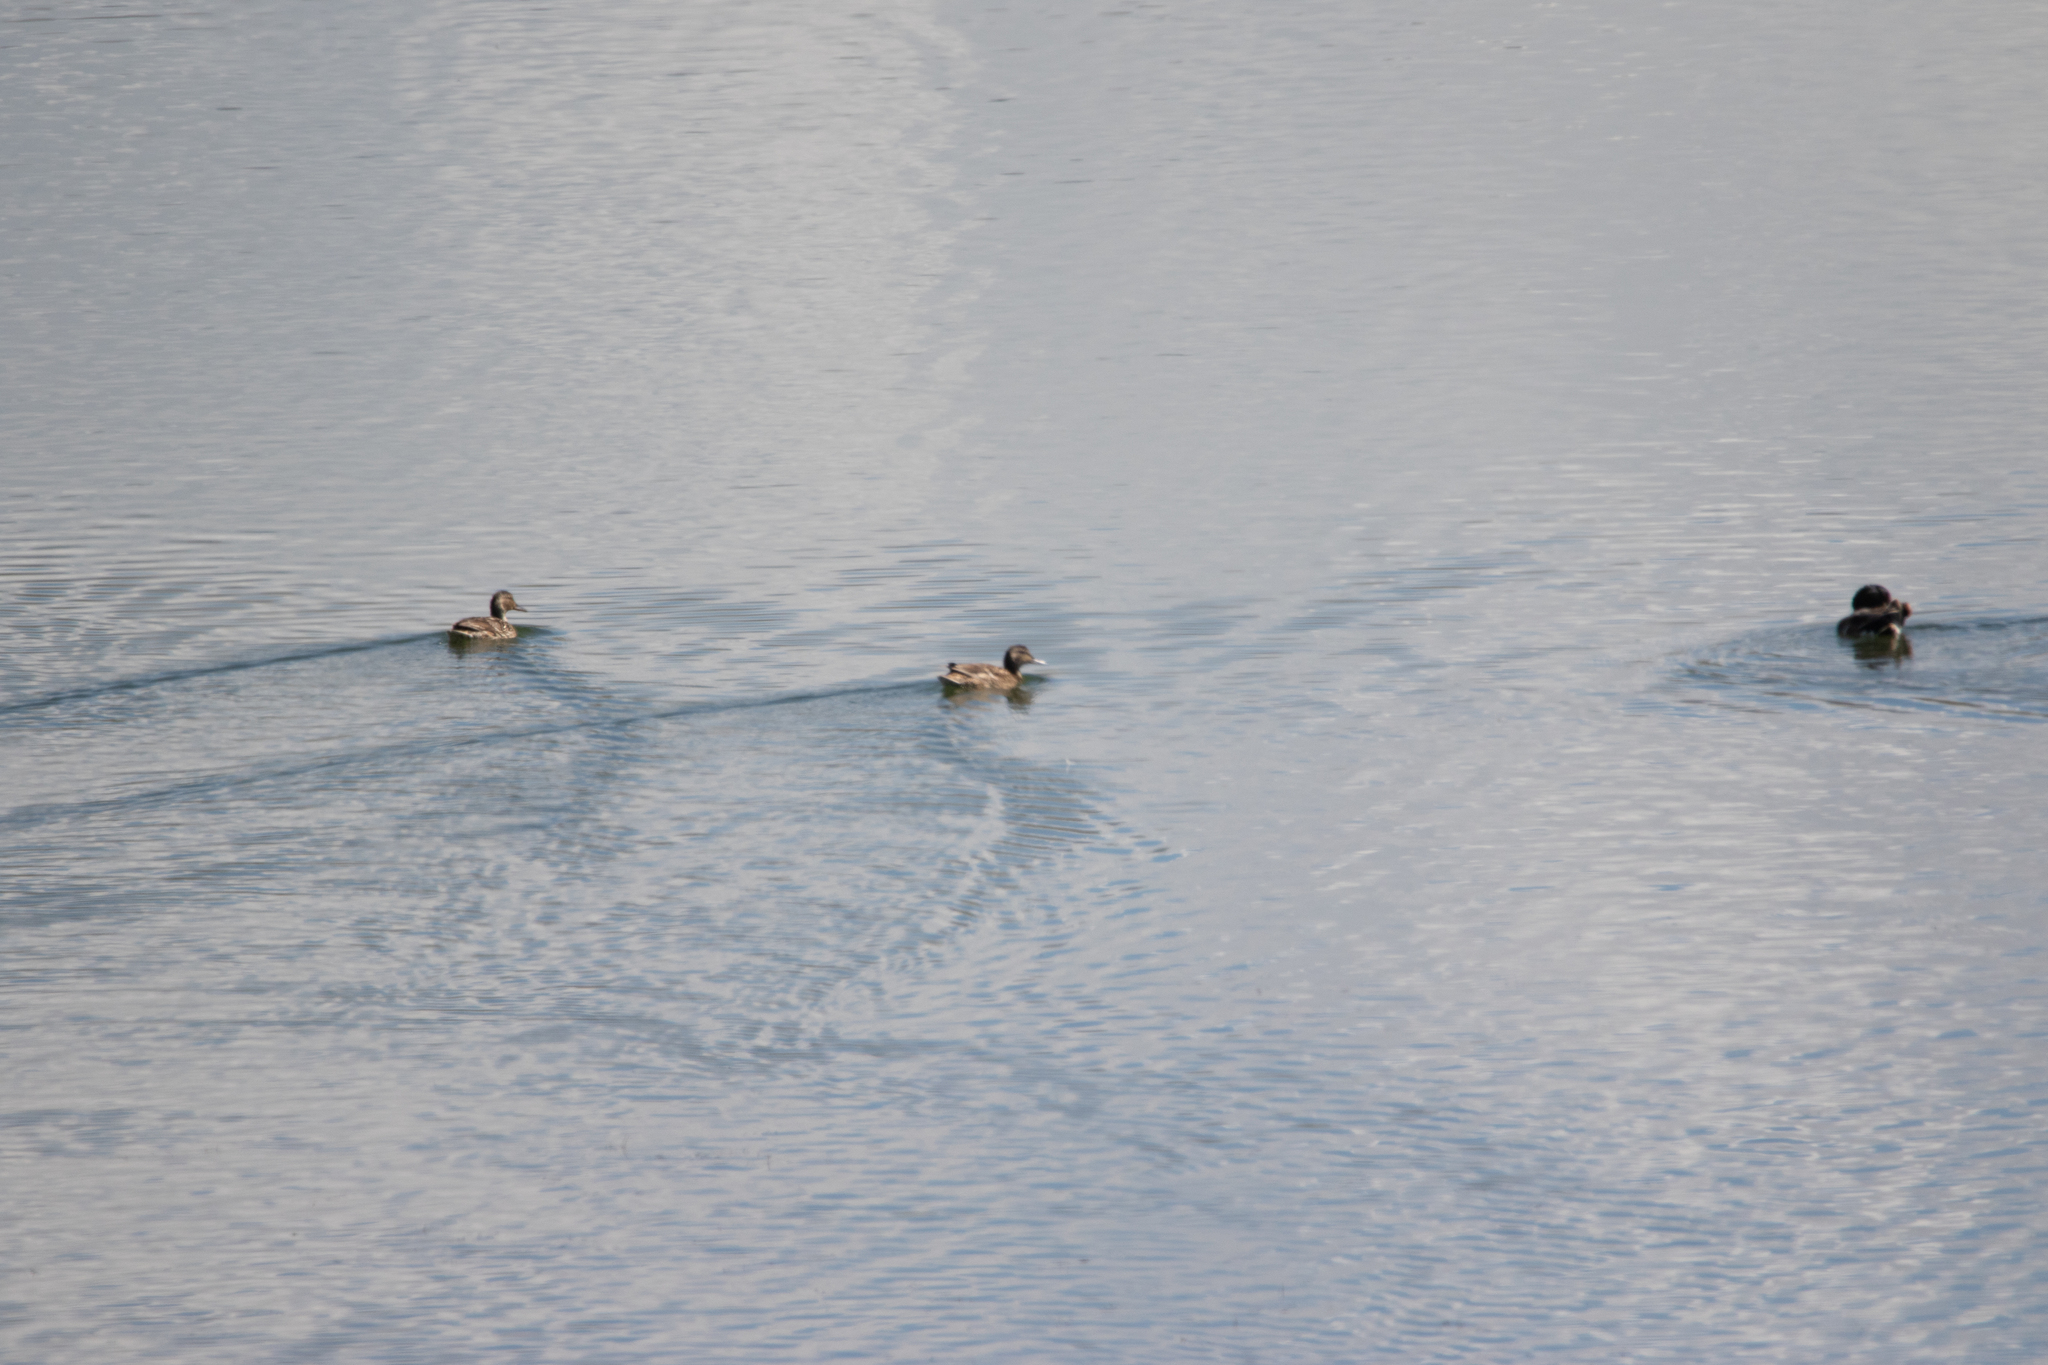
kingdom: Animalia
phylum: Chordata
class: Aves
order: Anseriformes
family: Anatidae
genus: Anas
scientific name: Anas crecca
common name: Eurasian teal
